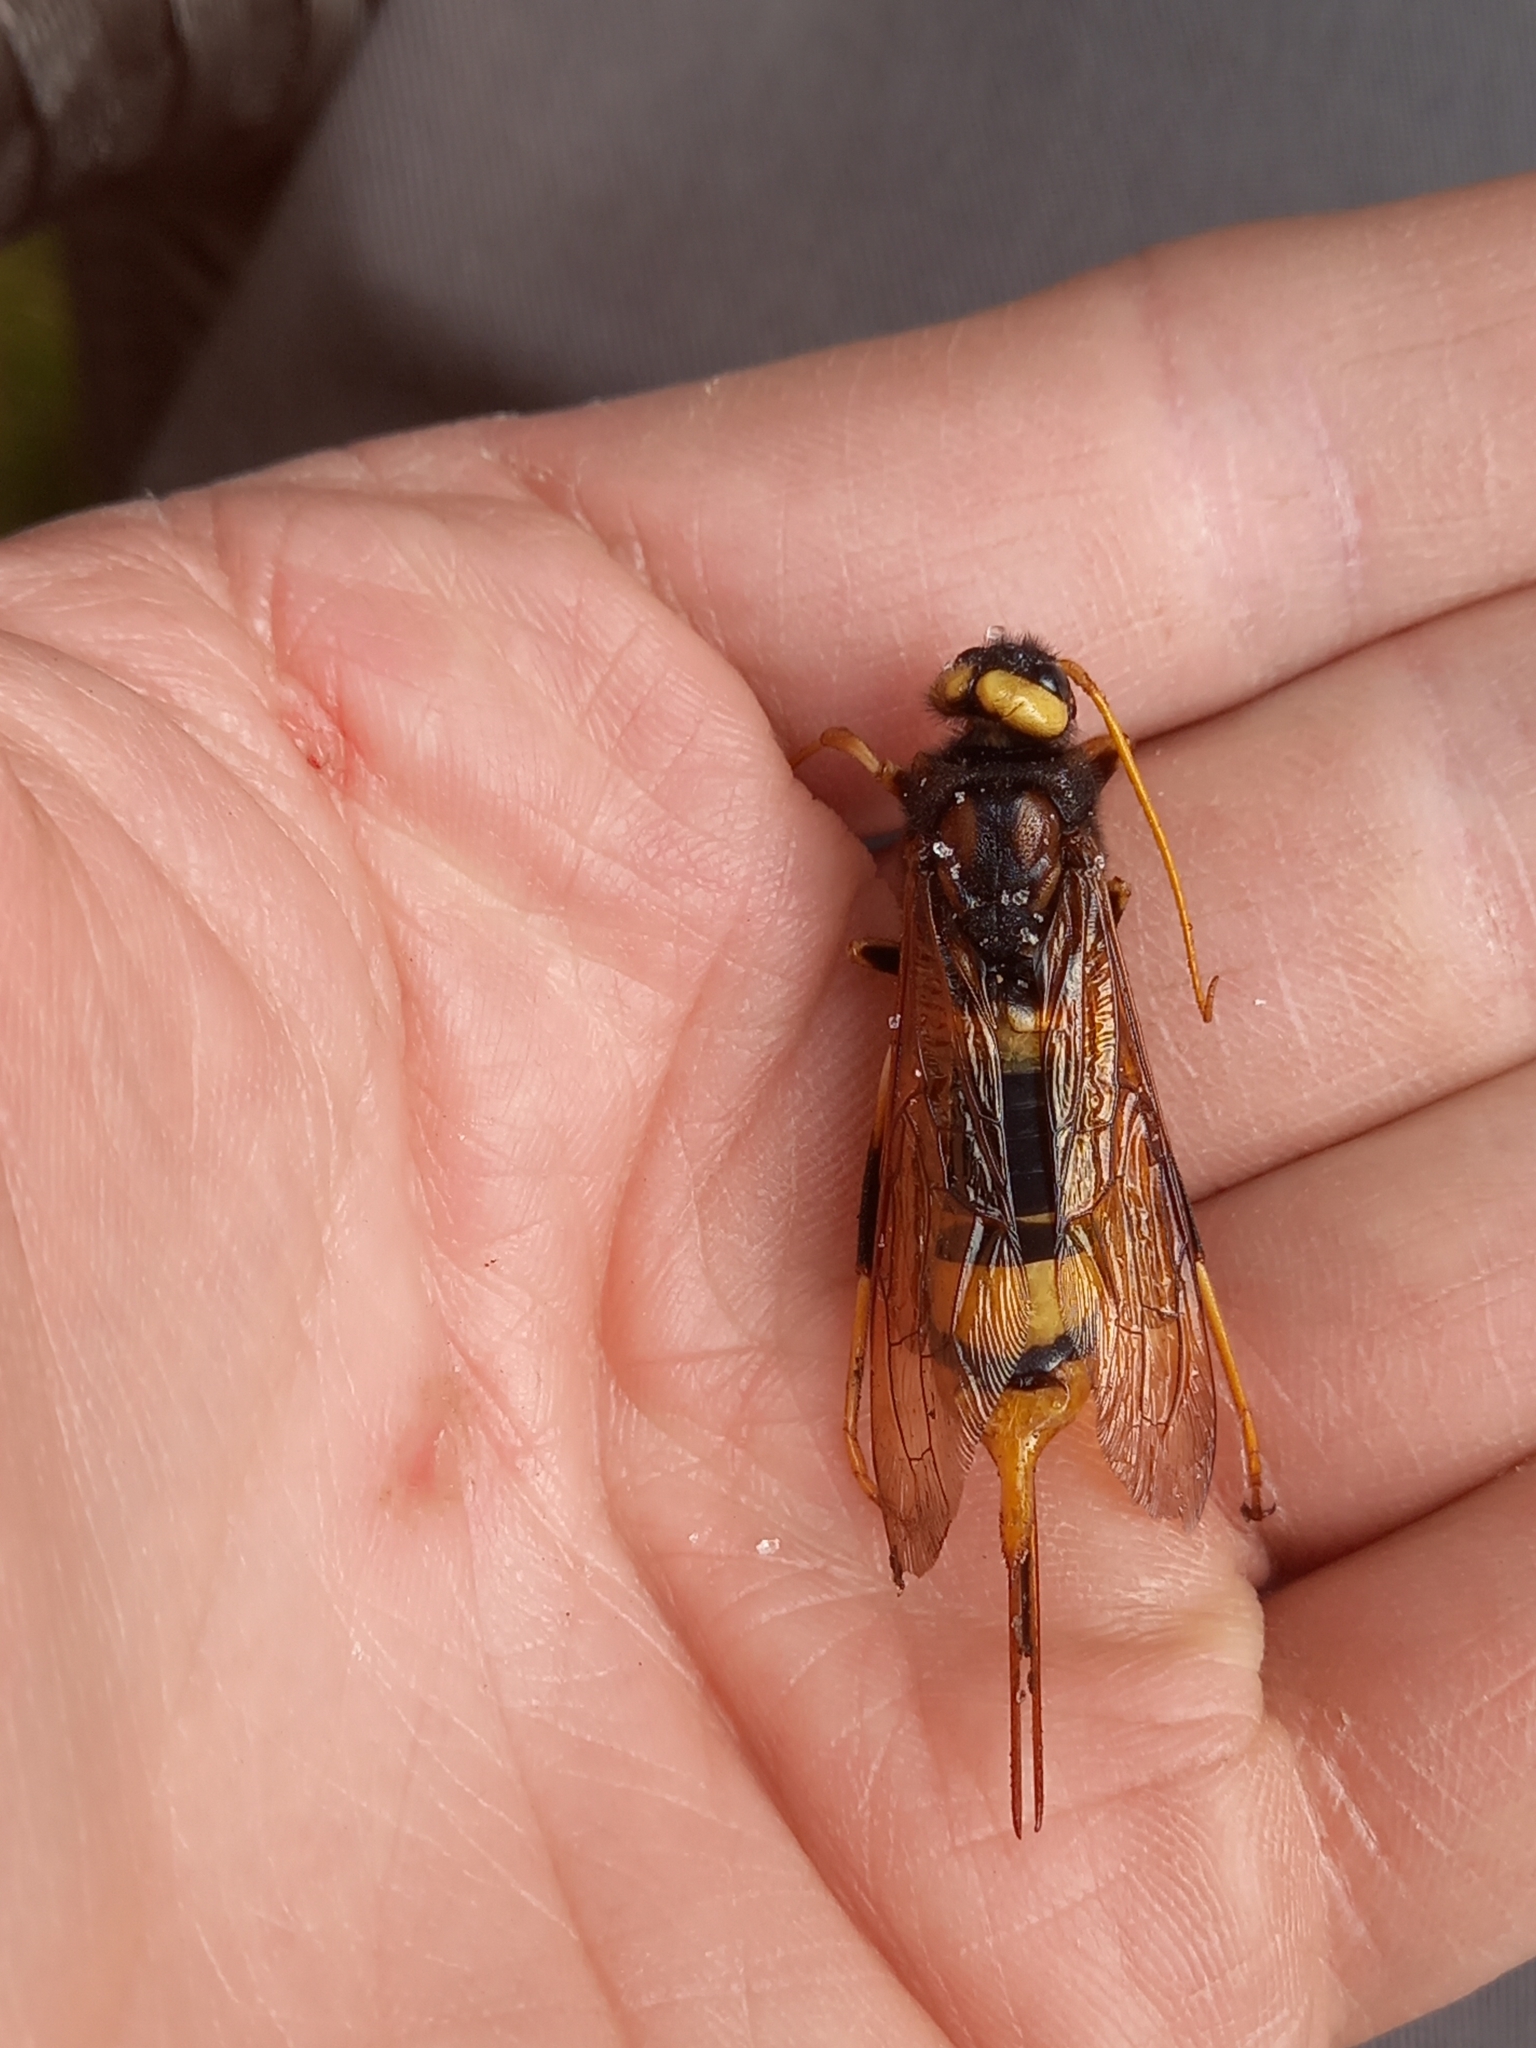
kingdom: Animalia
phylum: Arthropoda
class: Insecta
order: Hymenoptera
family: Siricidae
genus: Urocerus
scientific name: Urocerus augur
